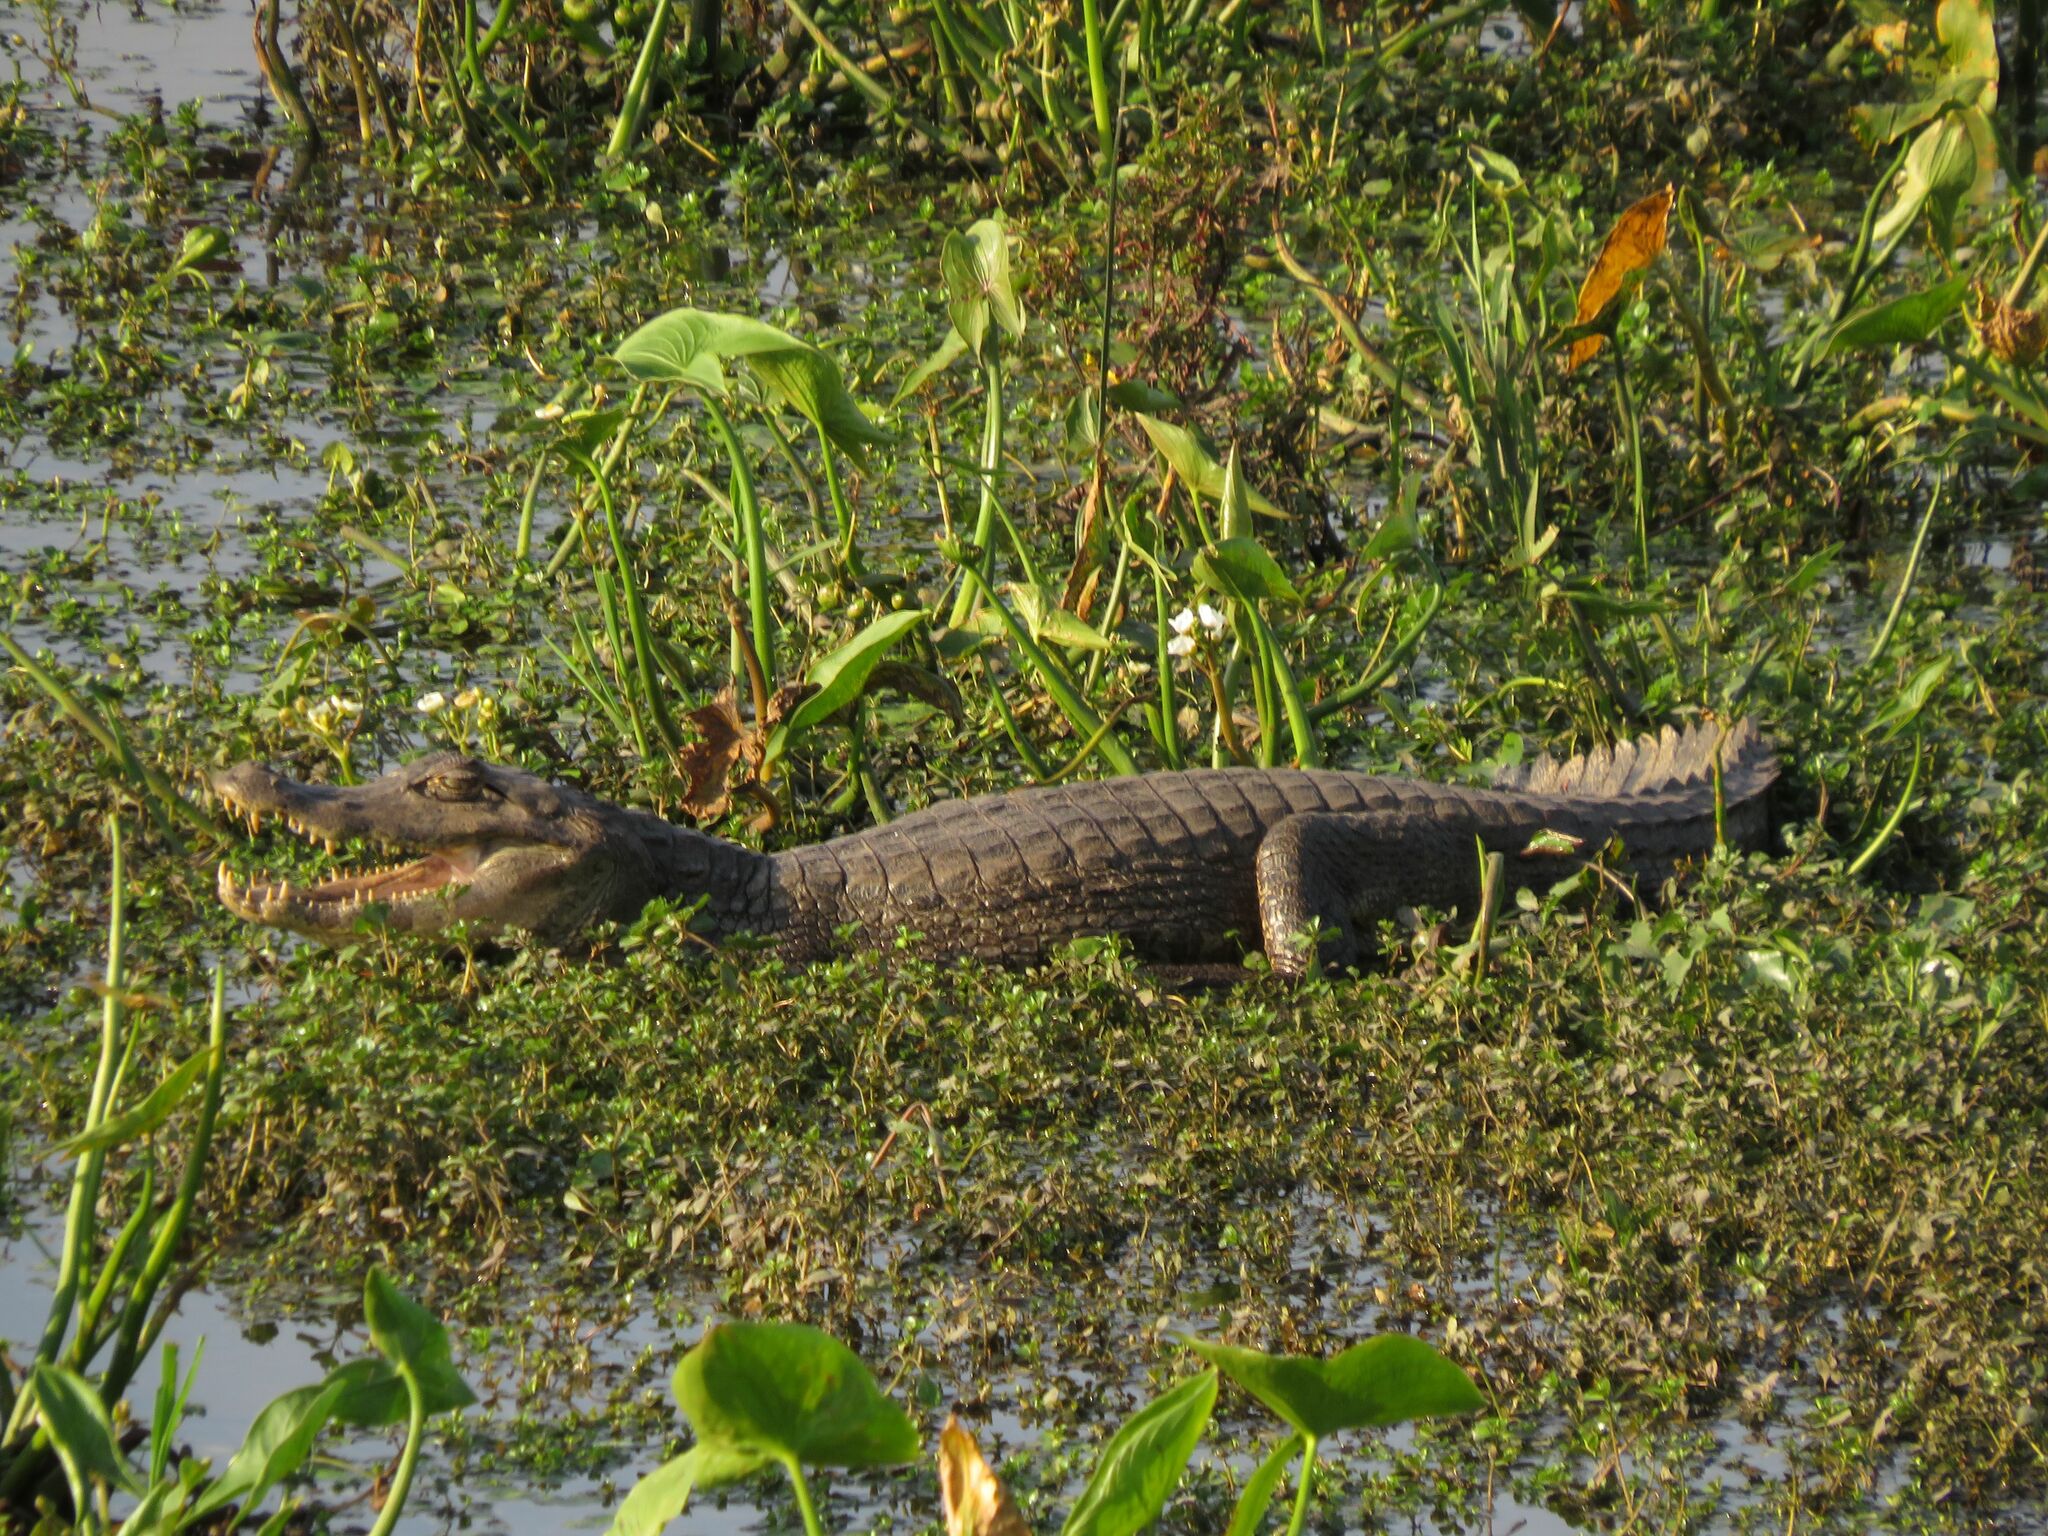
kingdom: Animalia
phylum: Chordata
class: Crocodylia
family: Alligatoridae
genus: Caiman
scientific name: Caiman yacare
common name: Yacare caiman
